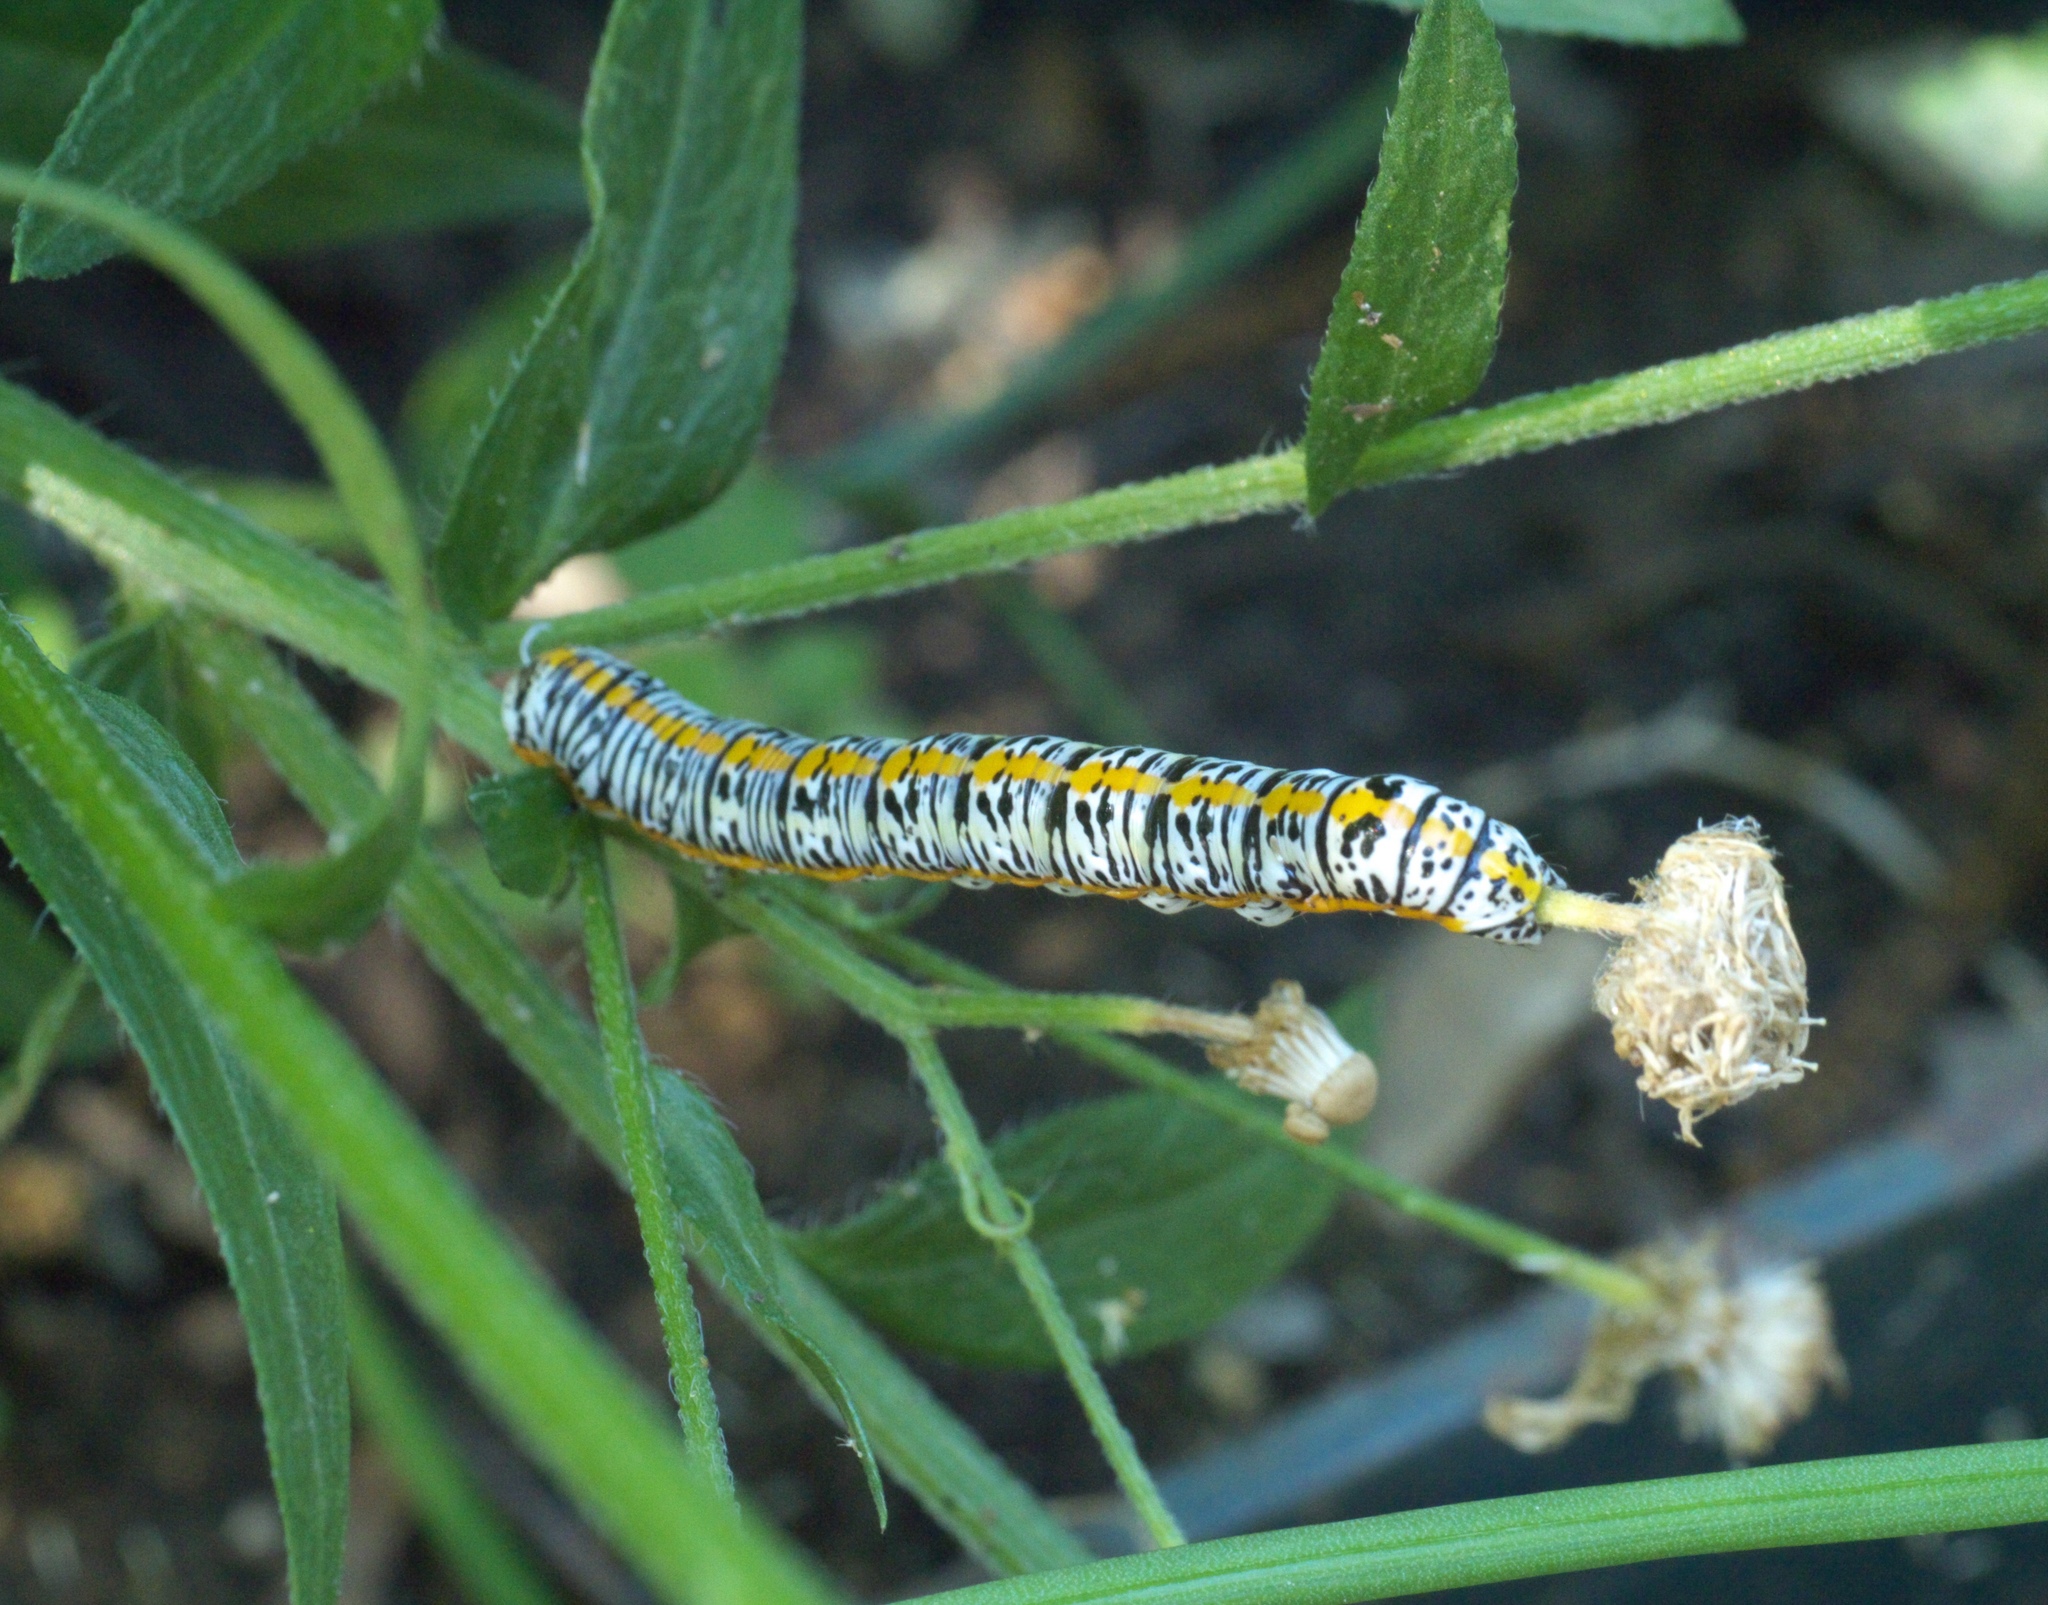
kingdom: Animalia
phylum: Arthropoda
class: Insecta
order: Lepidoptera
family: Noctuidae
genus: Cucullia
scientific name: Cucullia laetifica
